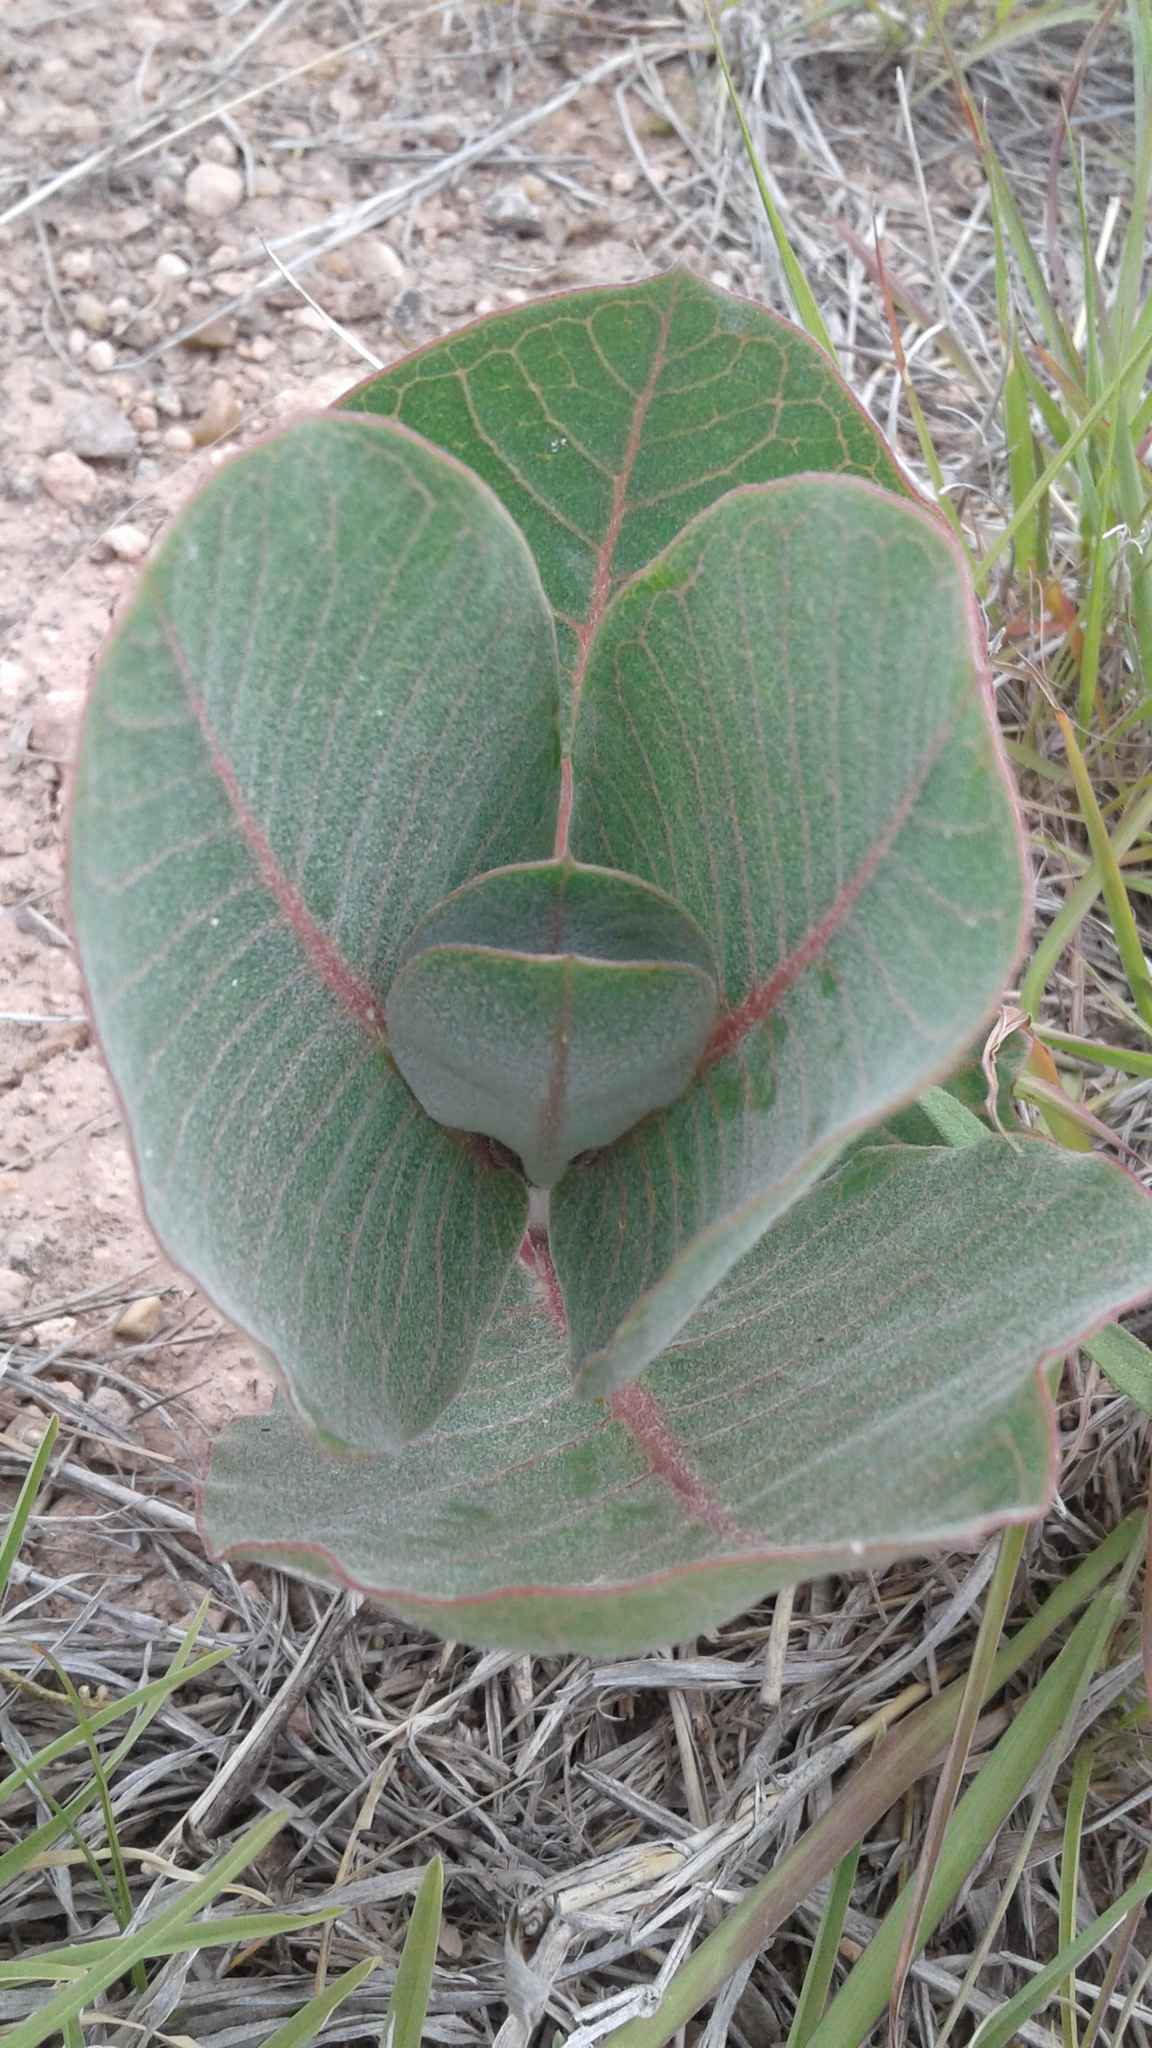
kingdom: Plantae
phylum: Tracheophyta
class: Magnoliopsida
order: Gentianales
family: Apocynaceae
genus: Asclepias
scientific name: Asclepias latifolia
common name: Broadleaf milkweed
